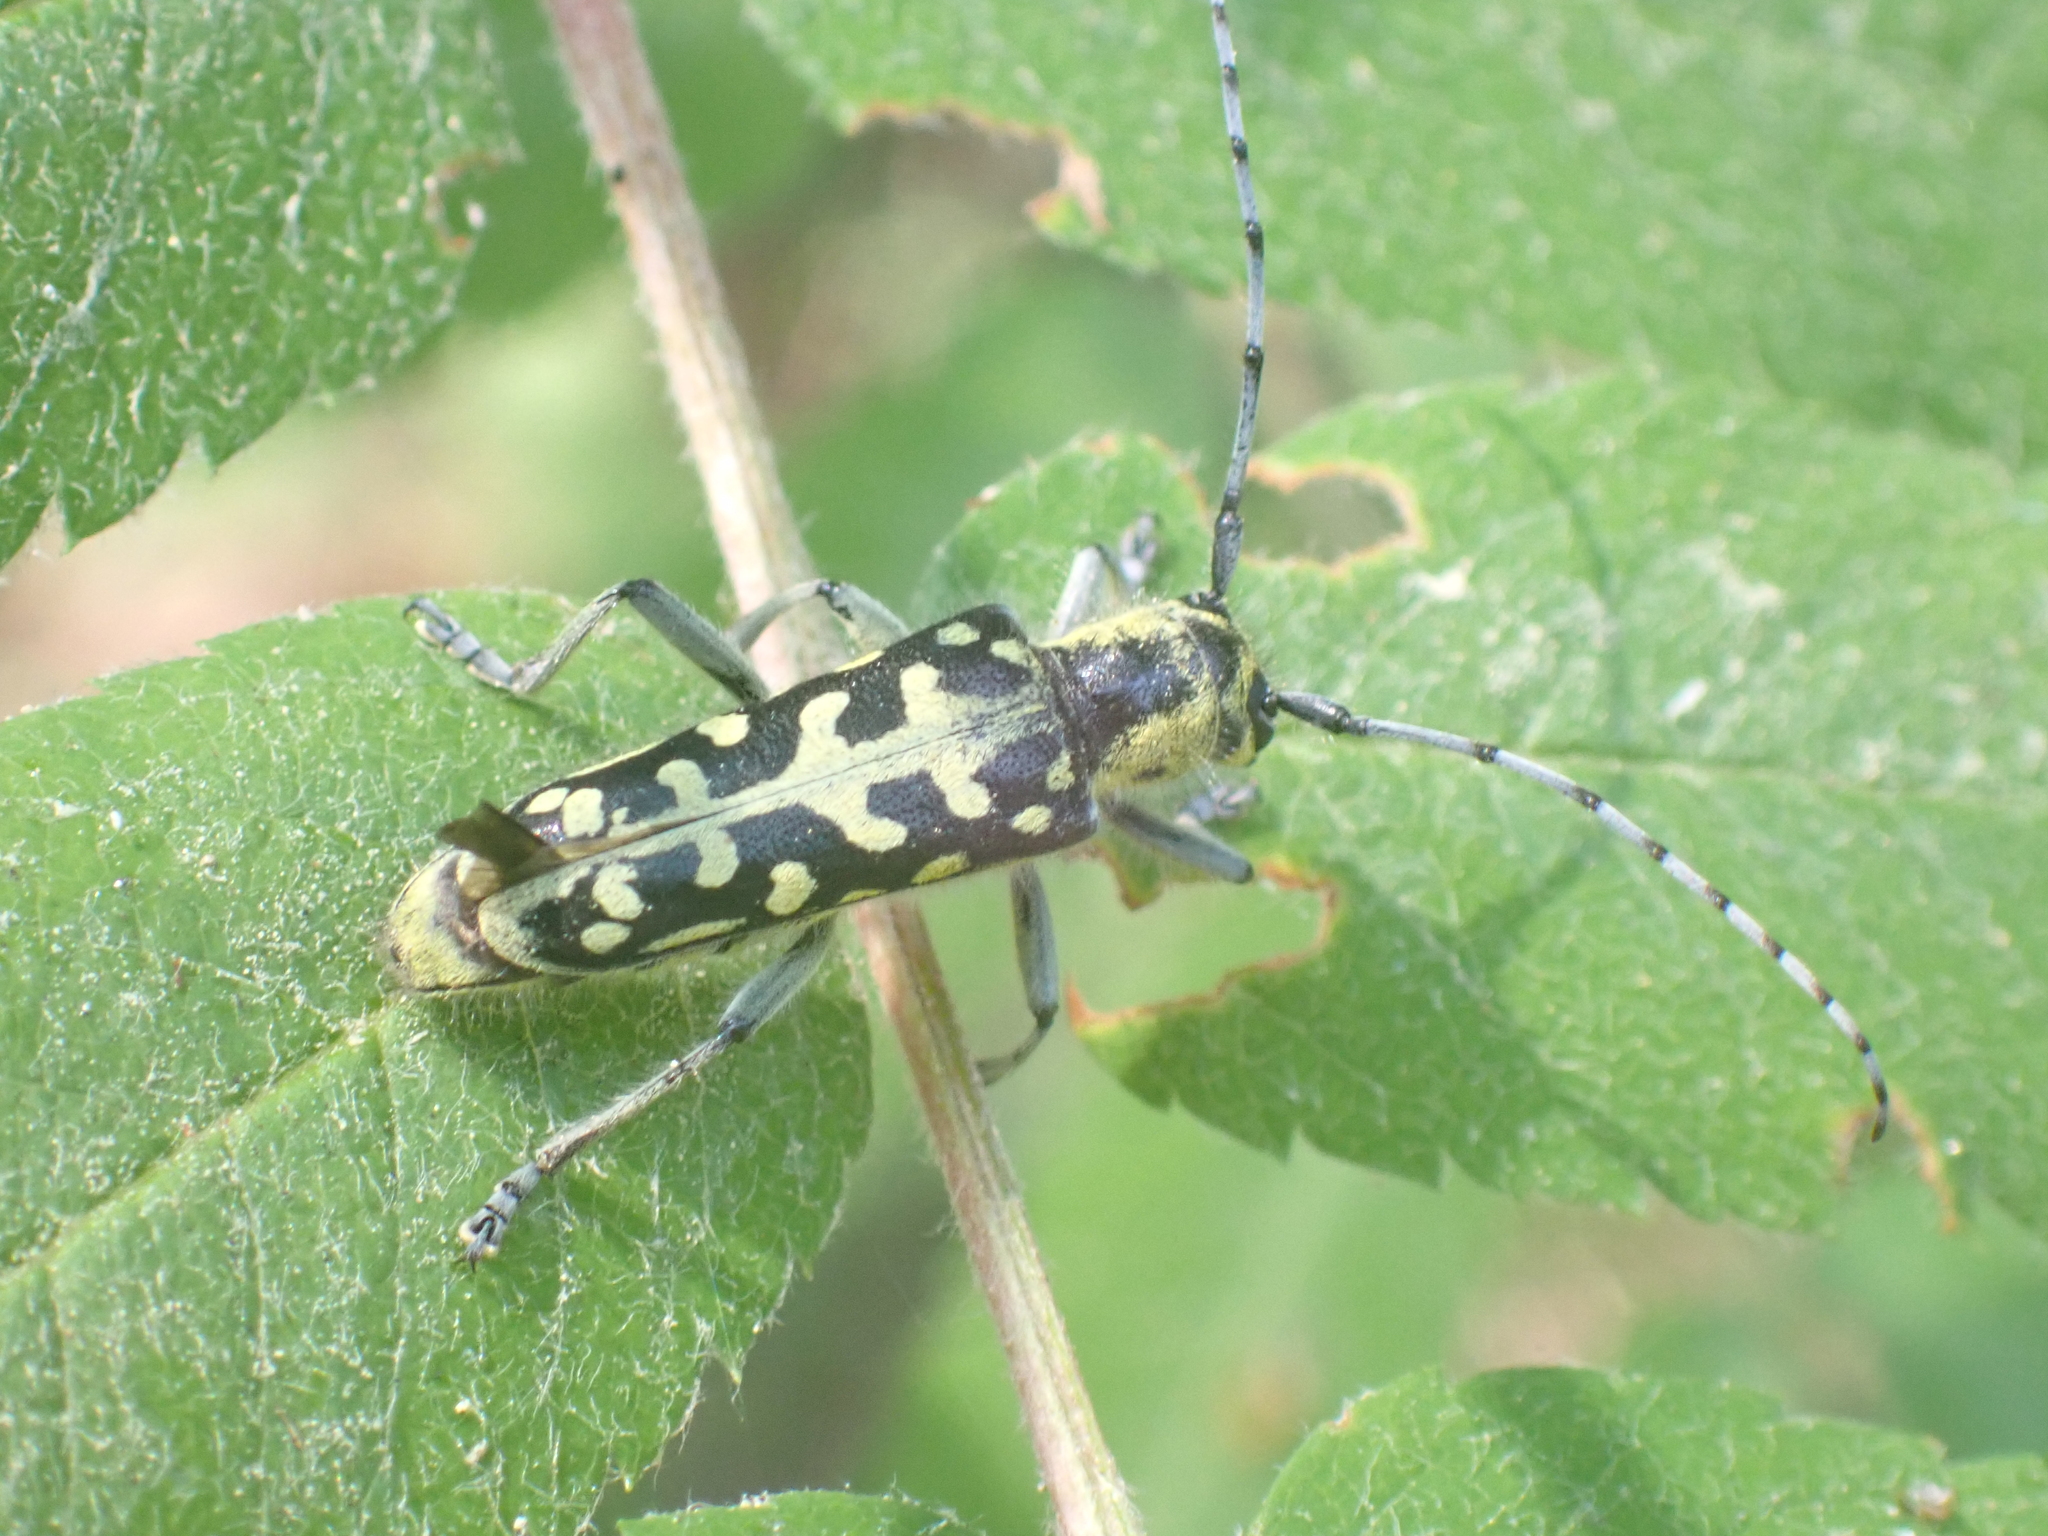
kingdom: Animalia
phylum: Arthropoda
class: Insecta
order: Coleoptera
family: Cerambycidae
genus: Saperda
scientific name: Saperda scalaris
